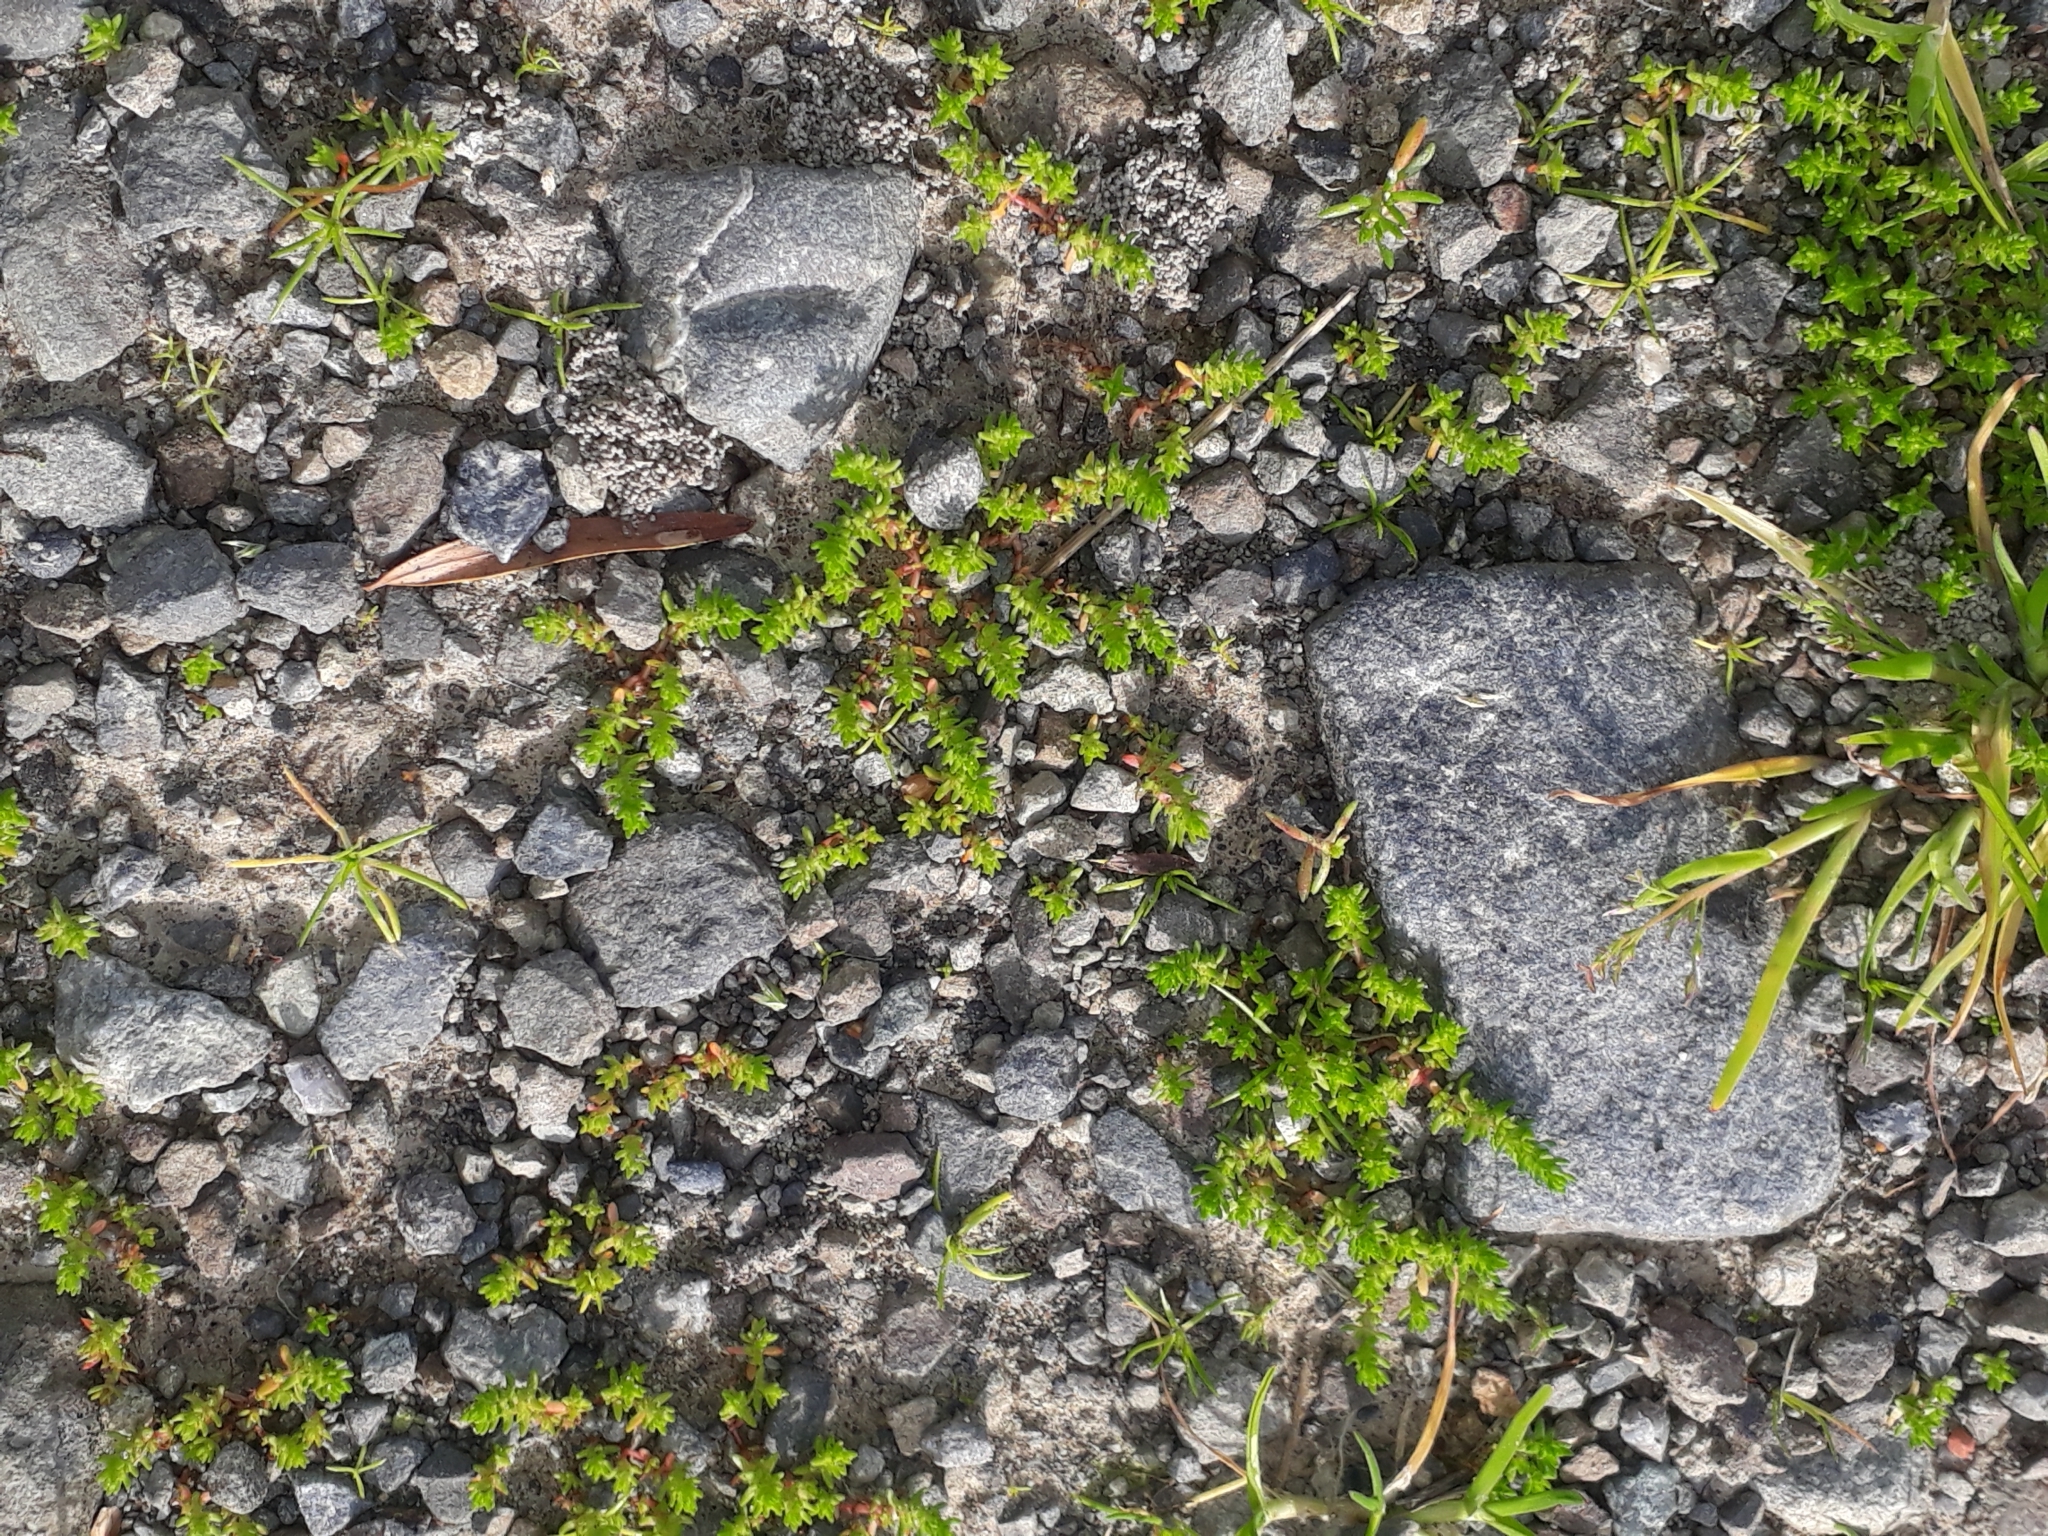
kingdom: Plantae
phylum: Tracheophyta
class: Magnoliopsida
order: Saxifragales
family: Crassulaceae
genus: Crassula
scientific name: Crassula decumbens
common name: Scilly pigmyweed
